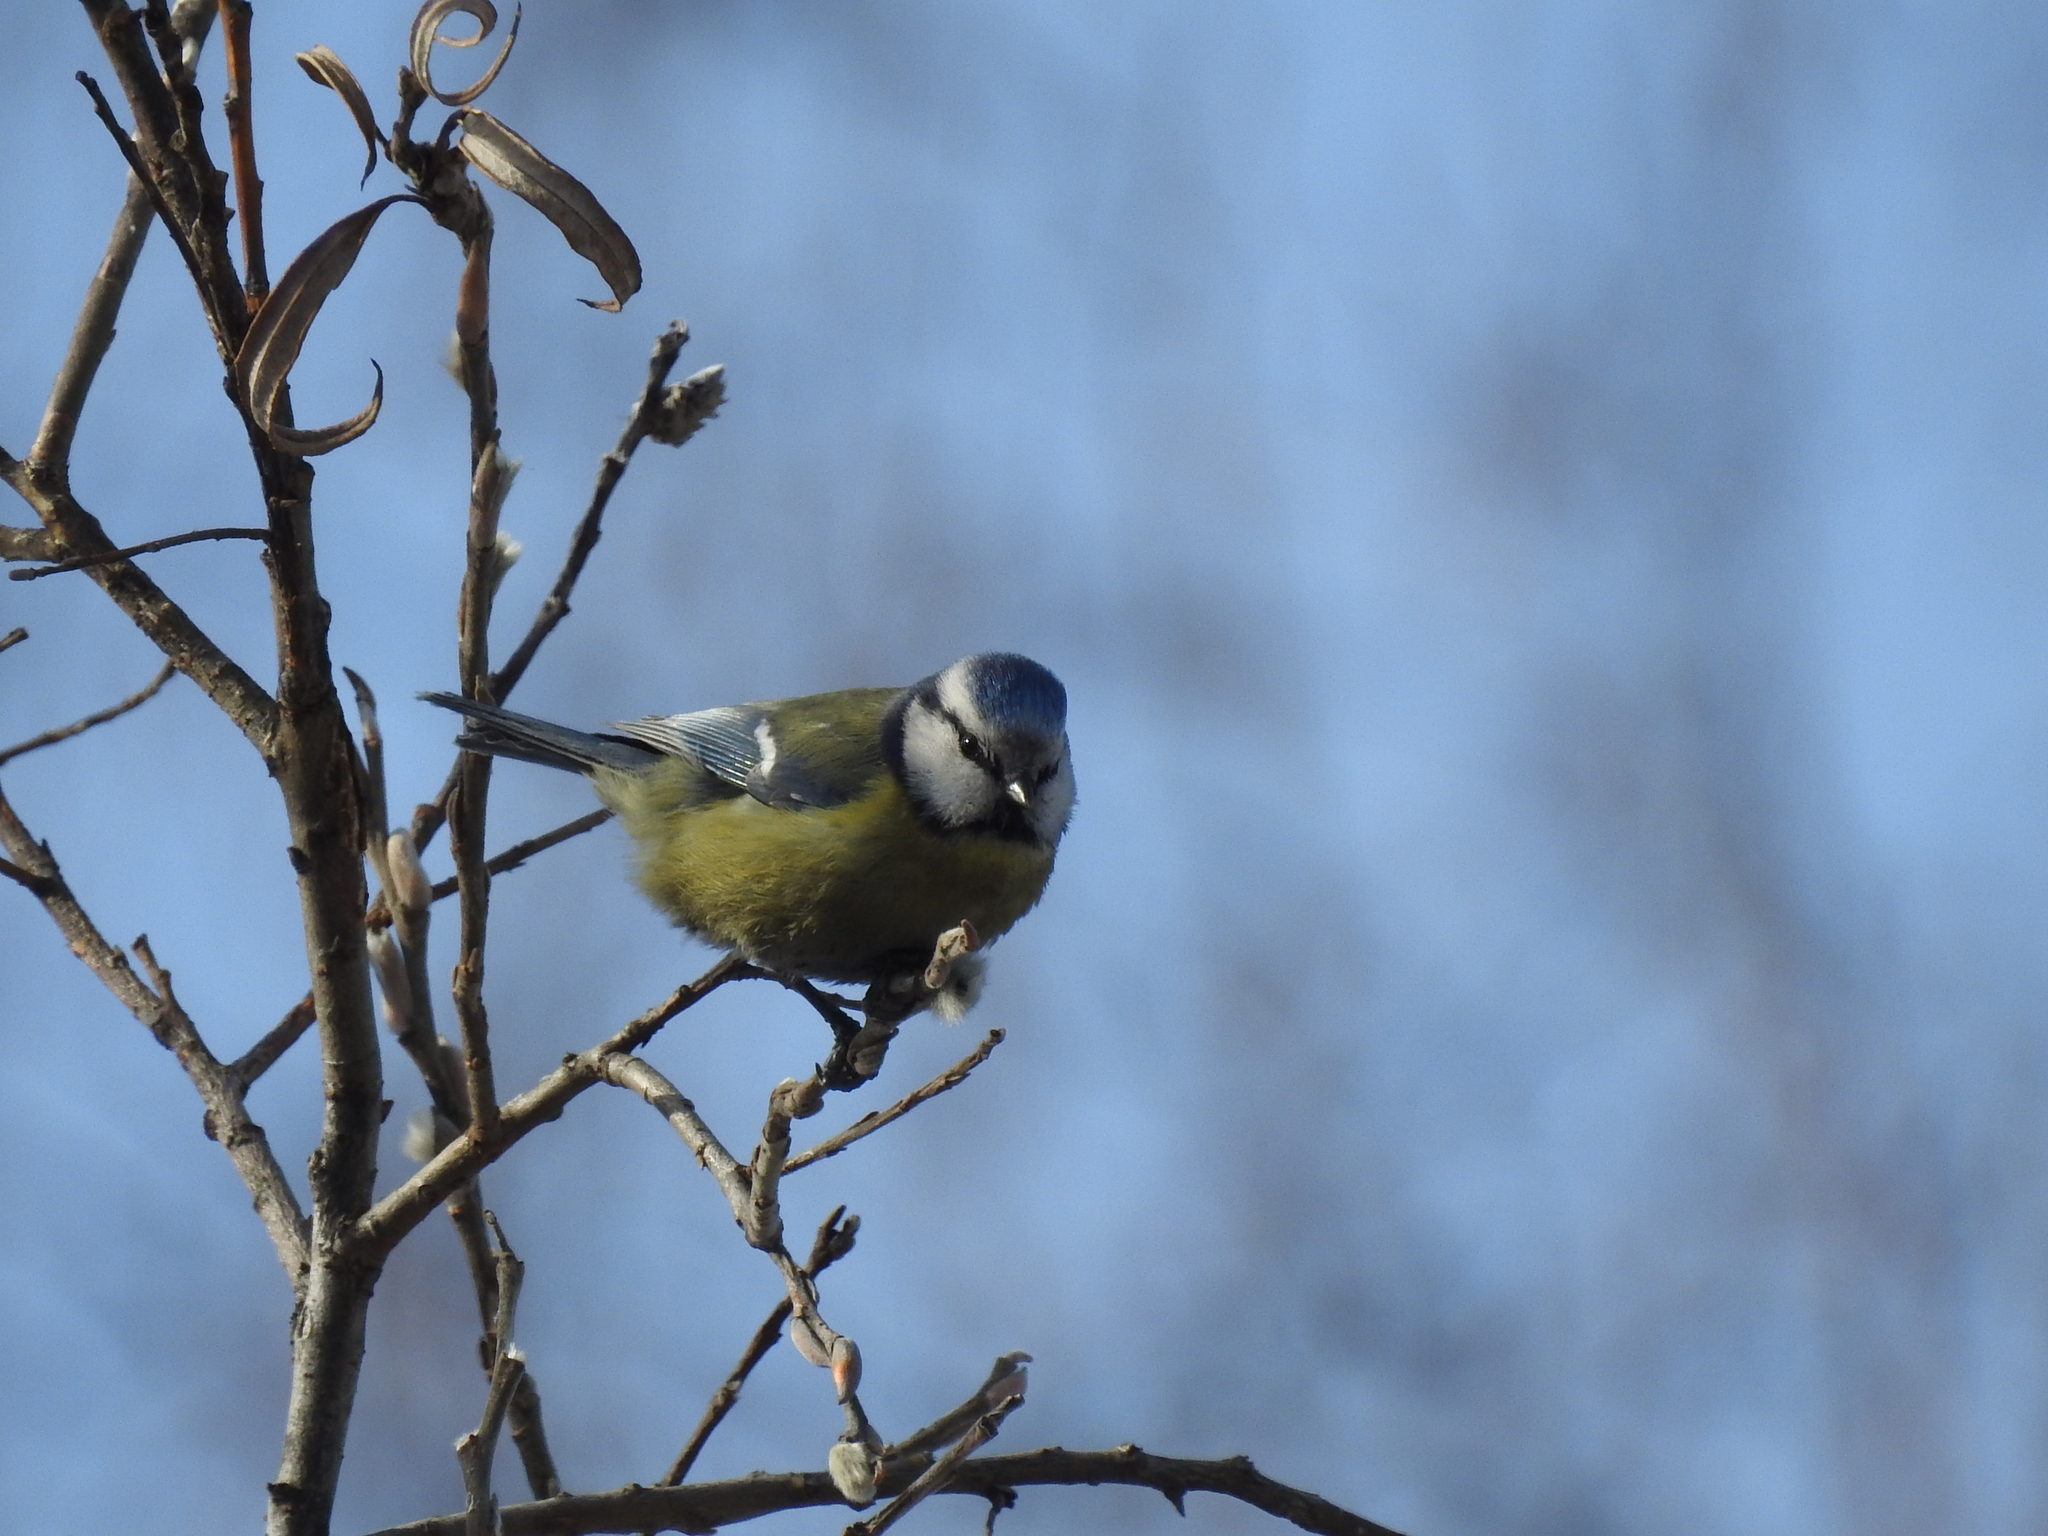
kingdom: Animalia
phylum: Chordata
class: Aves
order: Passeriformes
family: Paridae
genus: Cyanistes
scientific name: Cyanistes caeruleus
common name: Eurasian blue tit
